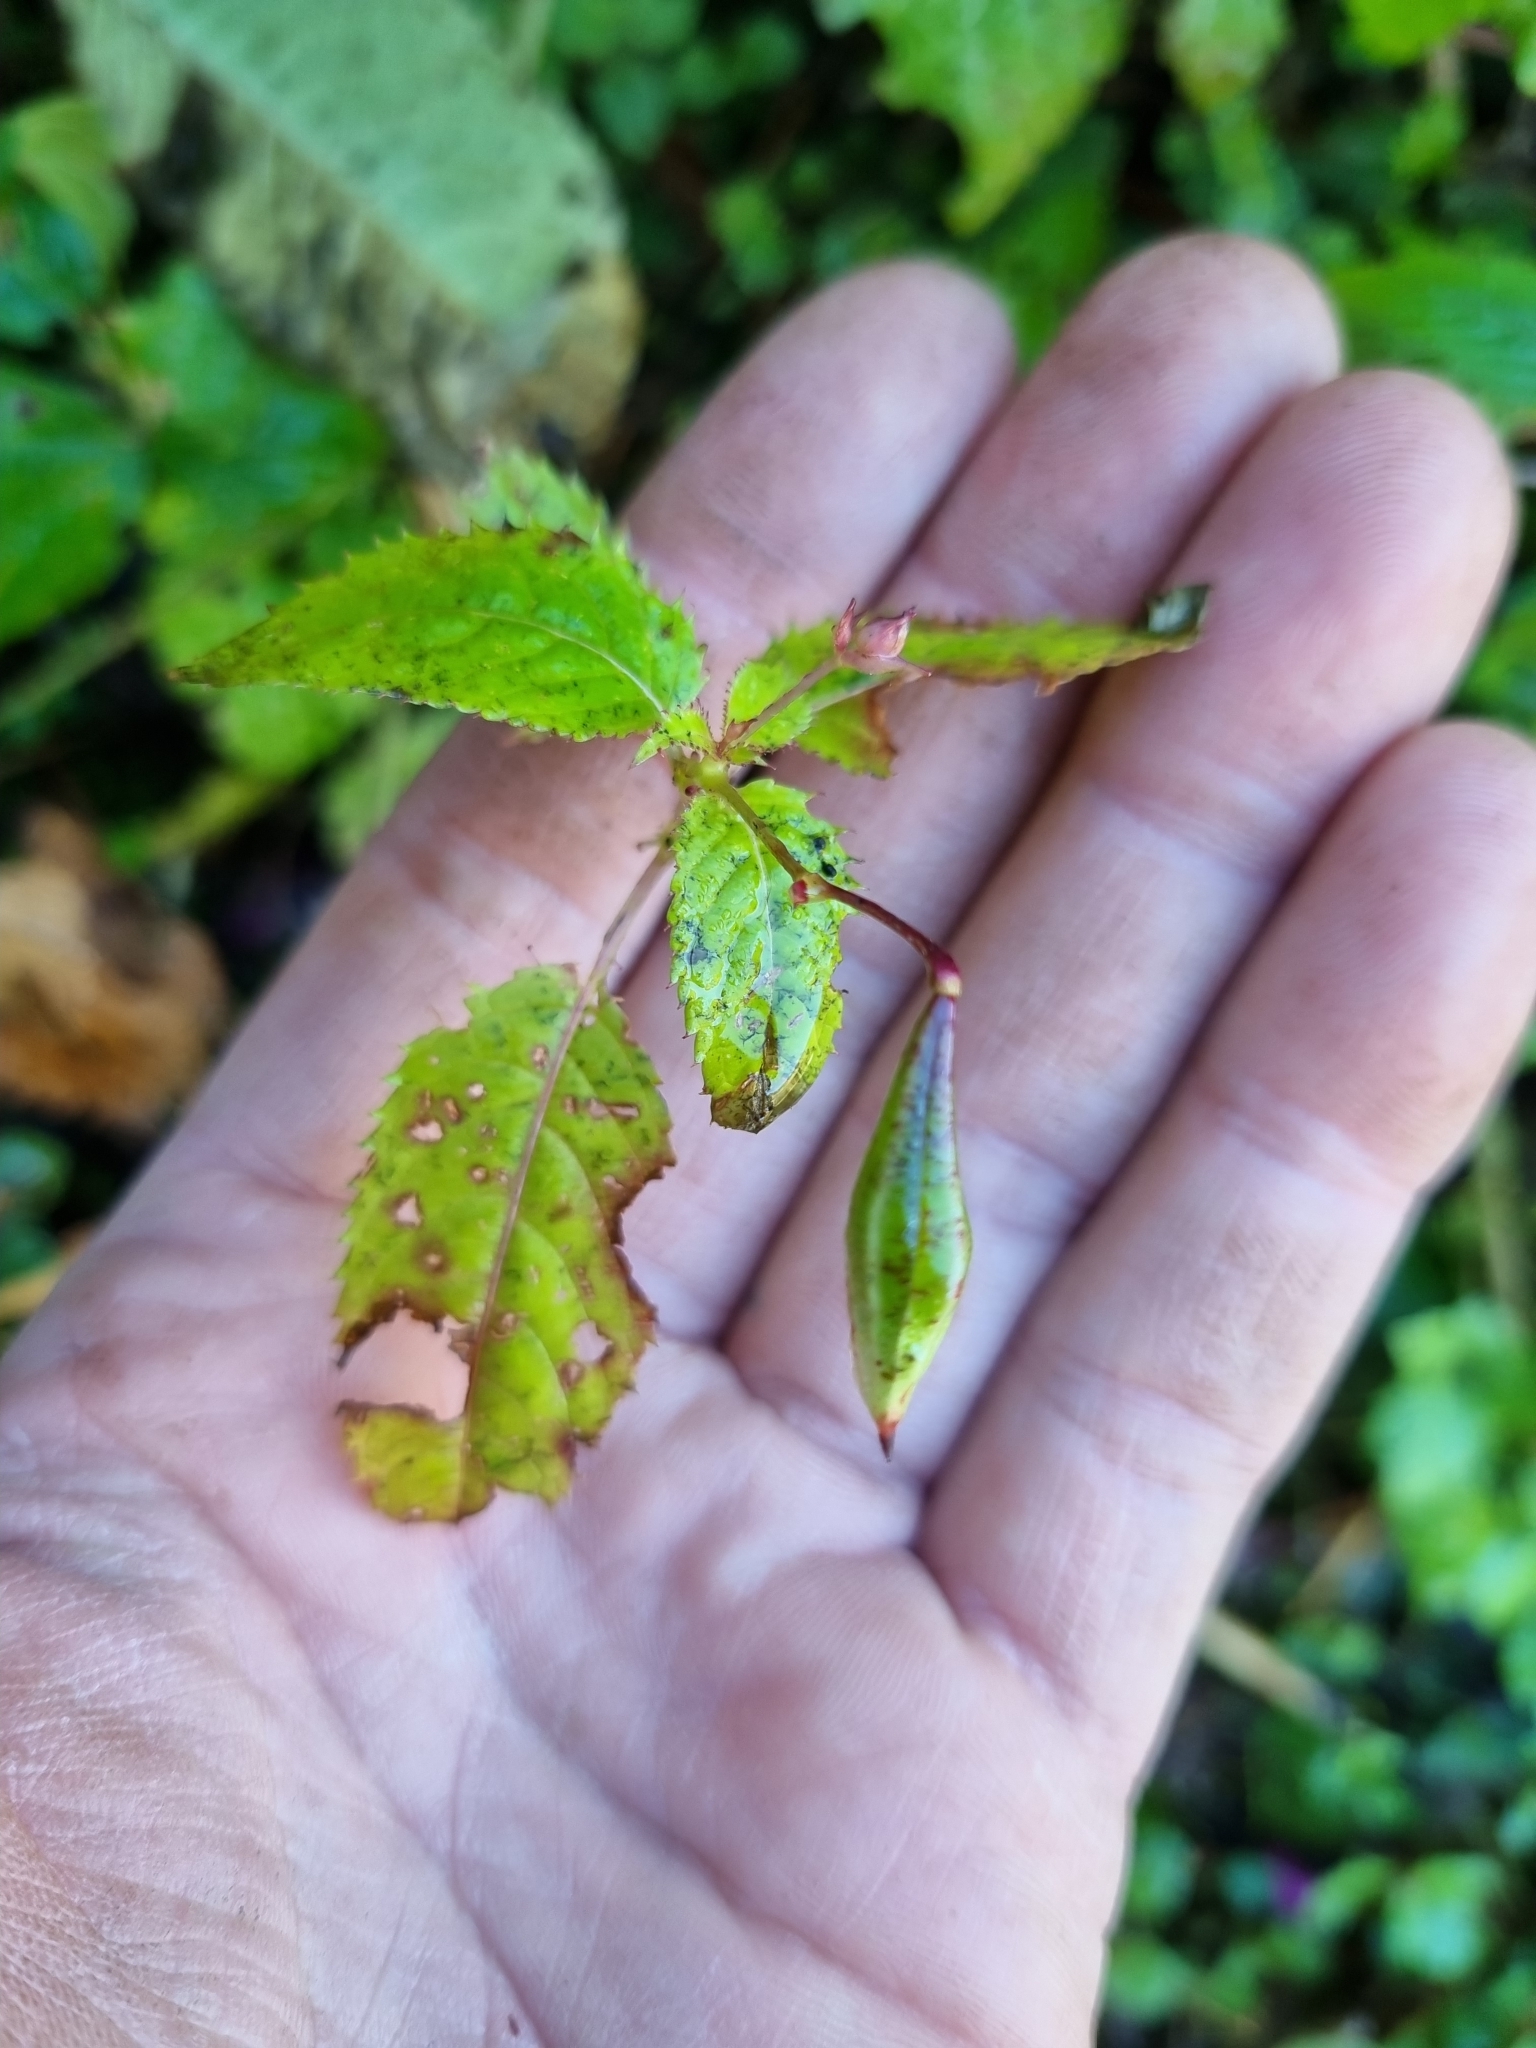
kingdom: Plantae
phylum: Tracheophyta
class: Magnoliopsida
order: Ericales
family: Balsaminaceae
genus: Impatiens
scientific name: Impatiens glandulifera
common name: Himalayan balsam
